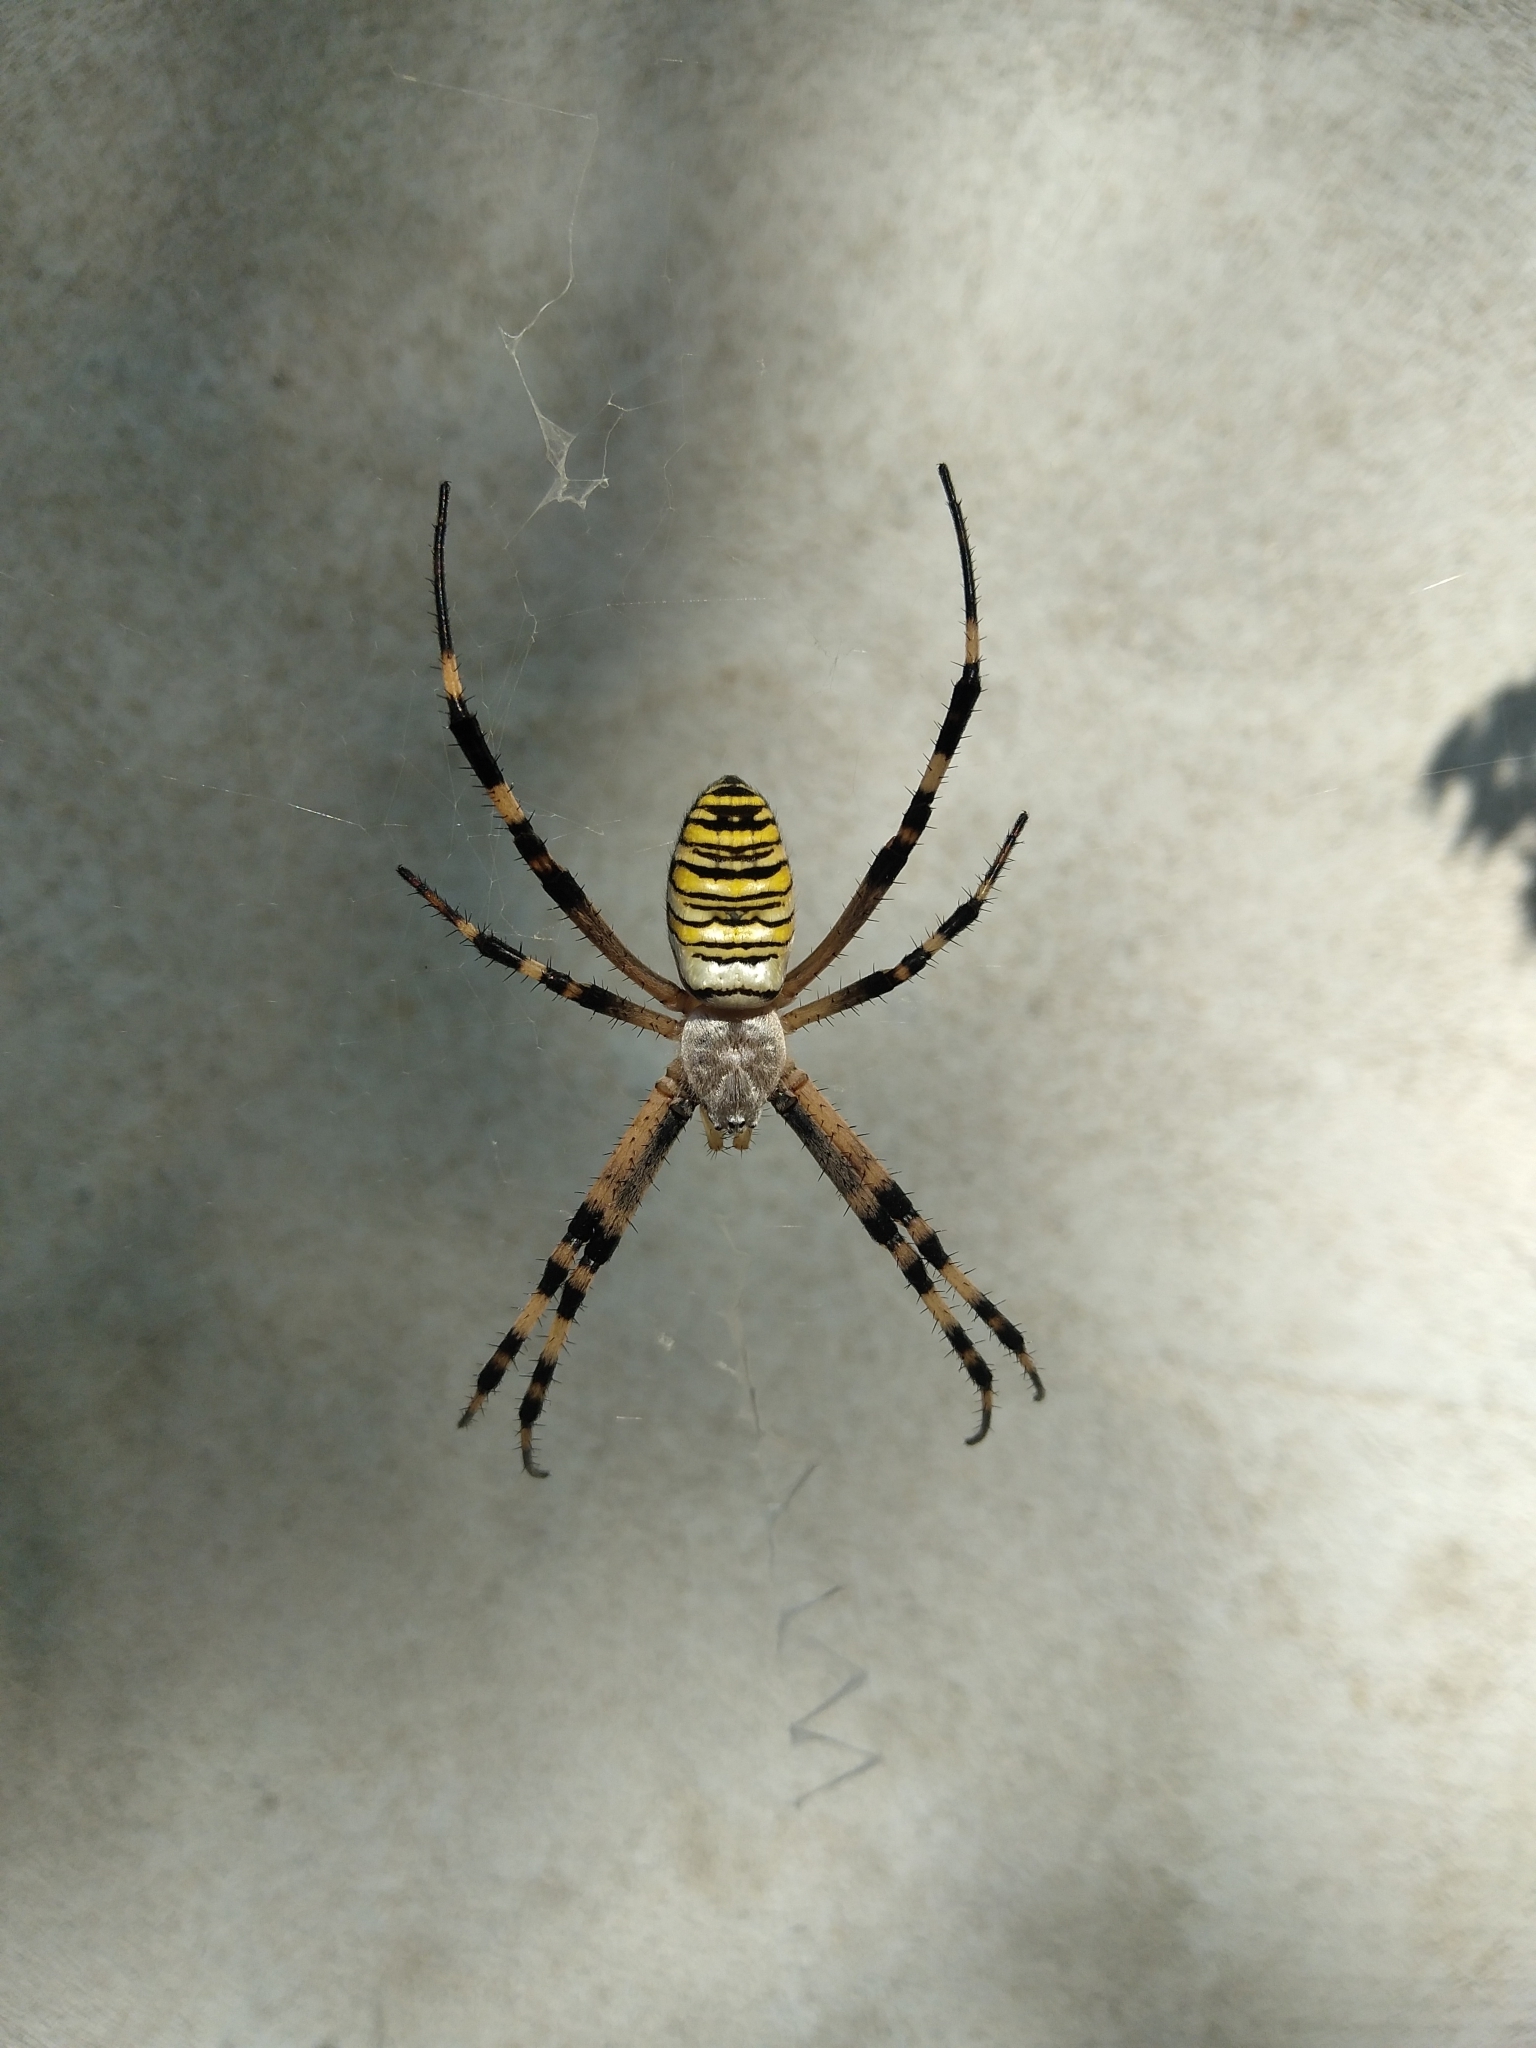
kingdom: Animalia
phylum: Arthropoda
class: Arachnida
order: Araneae
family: Araneidae
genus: Argiope
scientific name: Argiope bruennichi
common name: Wasp spider
